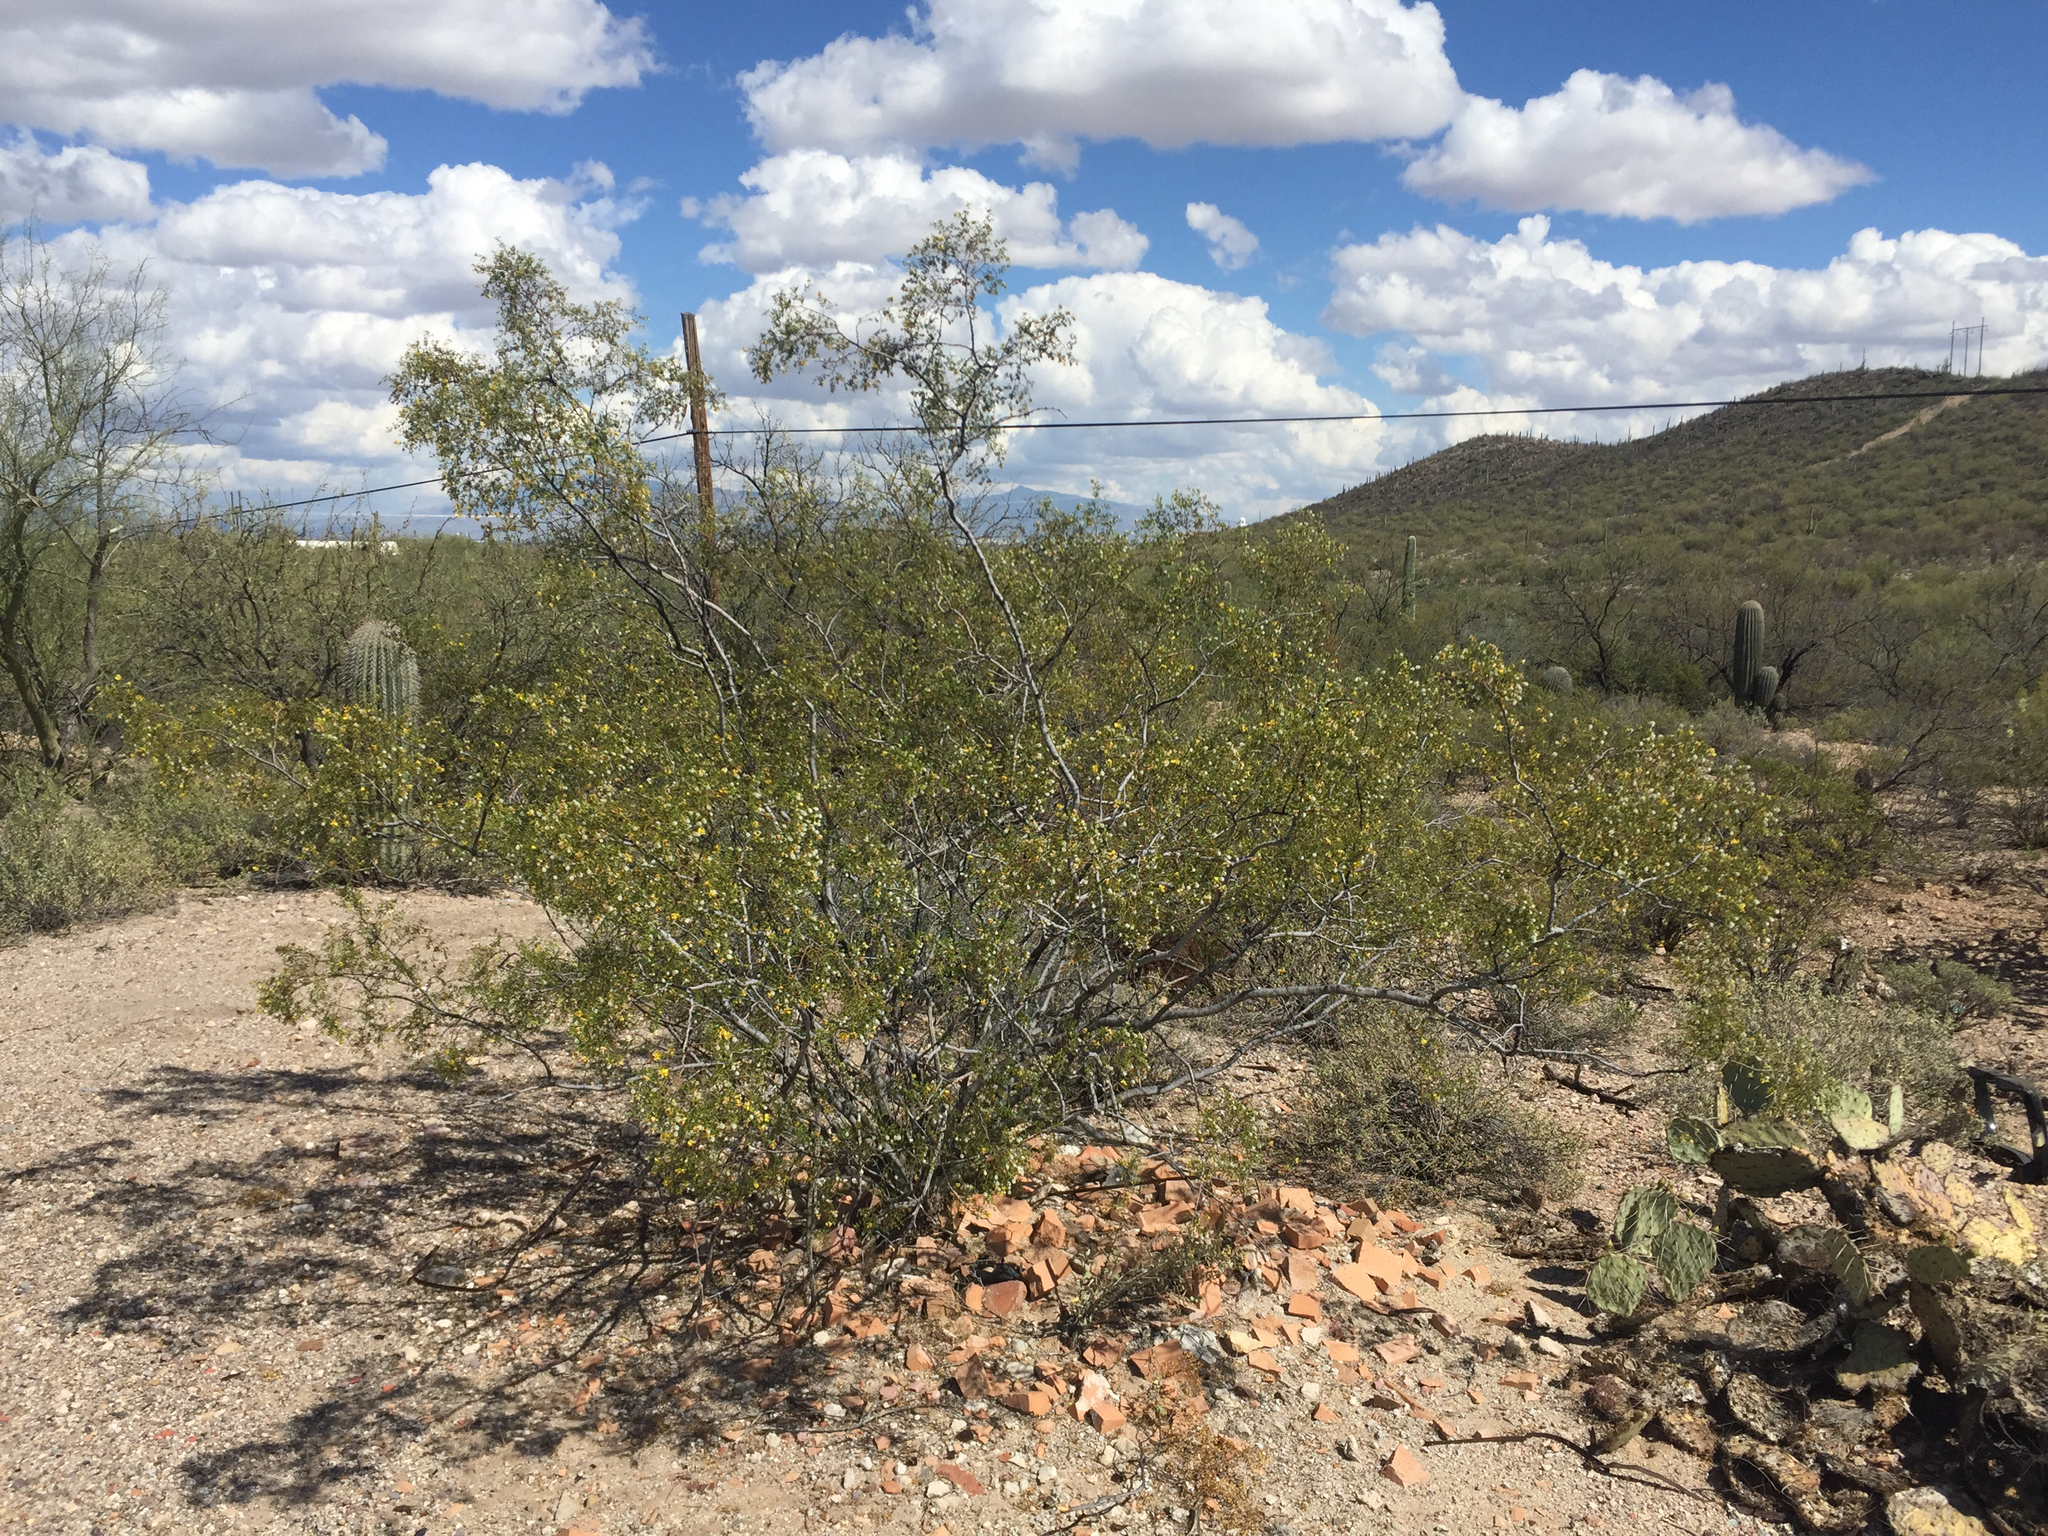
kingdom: Plantae
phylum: Tracheophyta
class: Magnoliopsida
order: Zygophyllales
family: Zygophyllaceae
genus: Larrea
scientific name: Larrea tridentata
